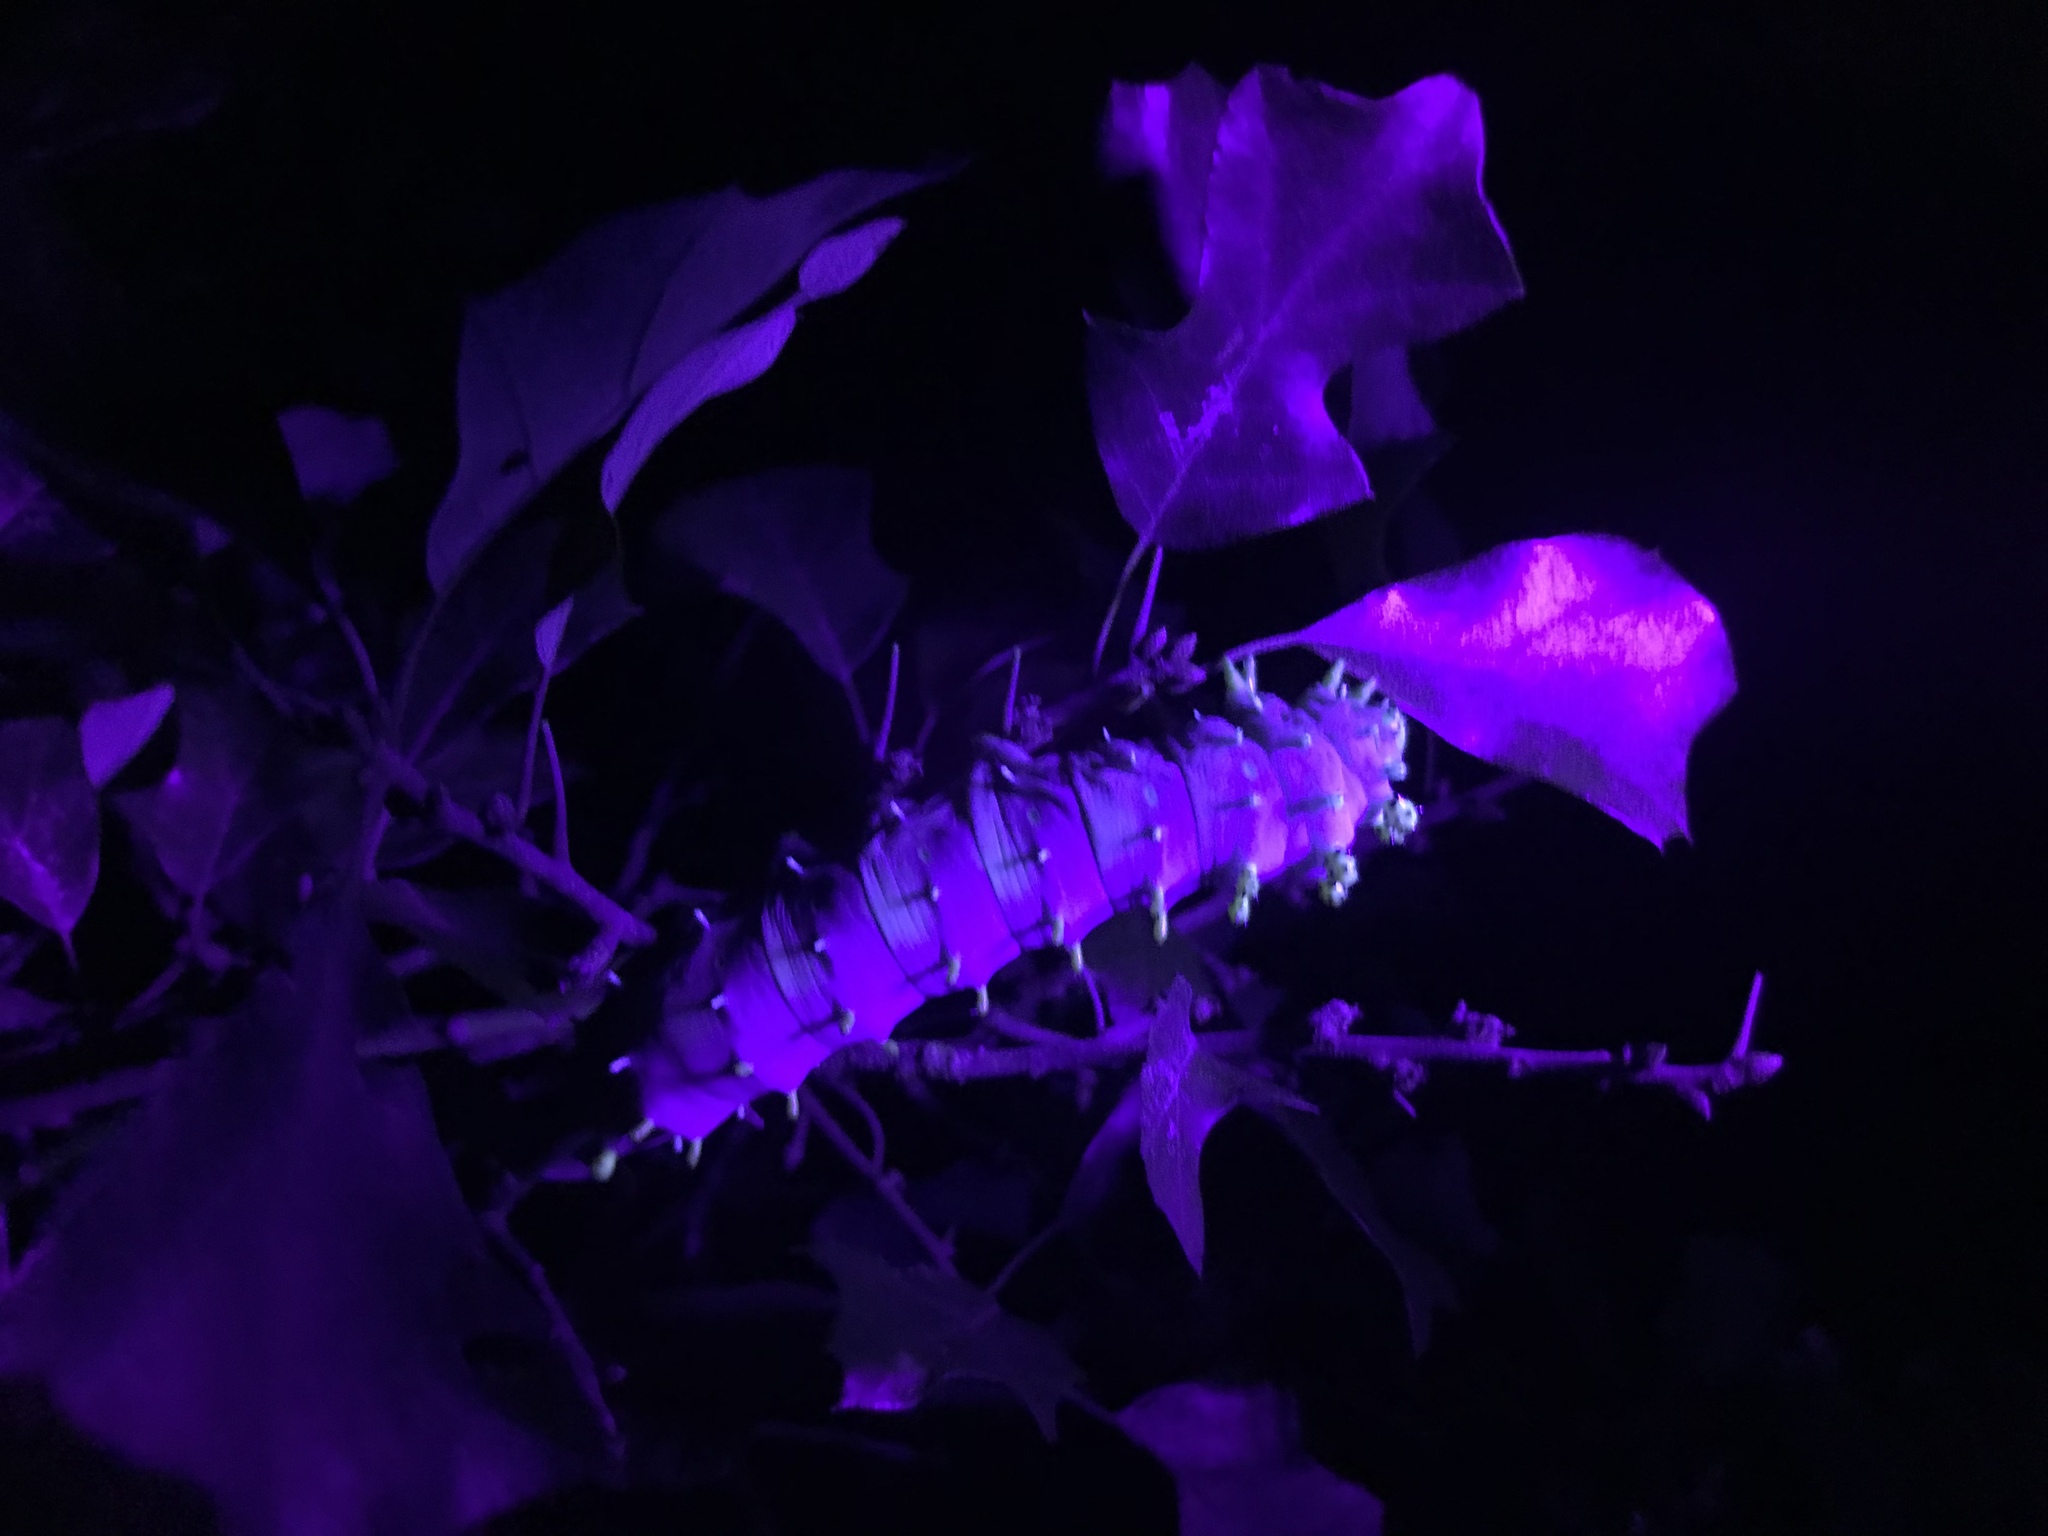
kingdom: Animalia
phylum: Arthropoda
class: Insecta
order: Lepidoptera
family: Saturniidae
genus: Hyalophora
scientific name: Hyalophora cecropia
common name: Cecropia silkmoth
